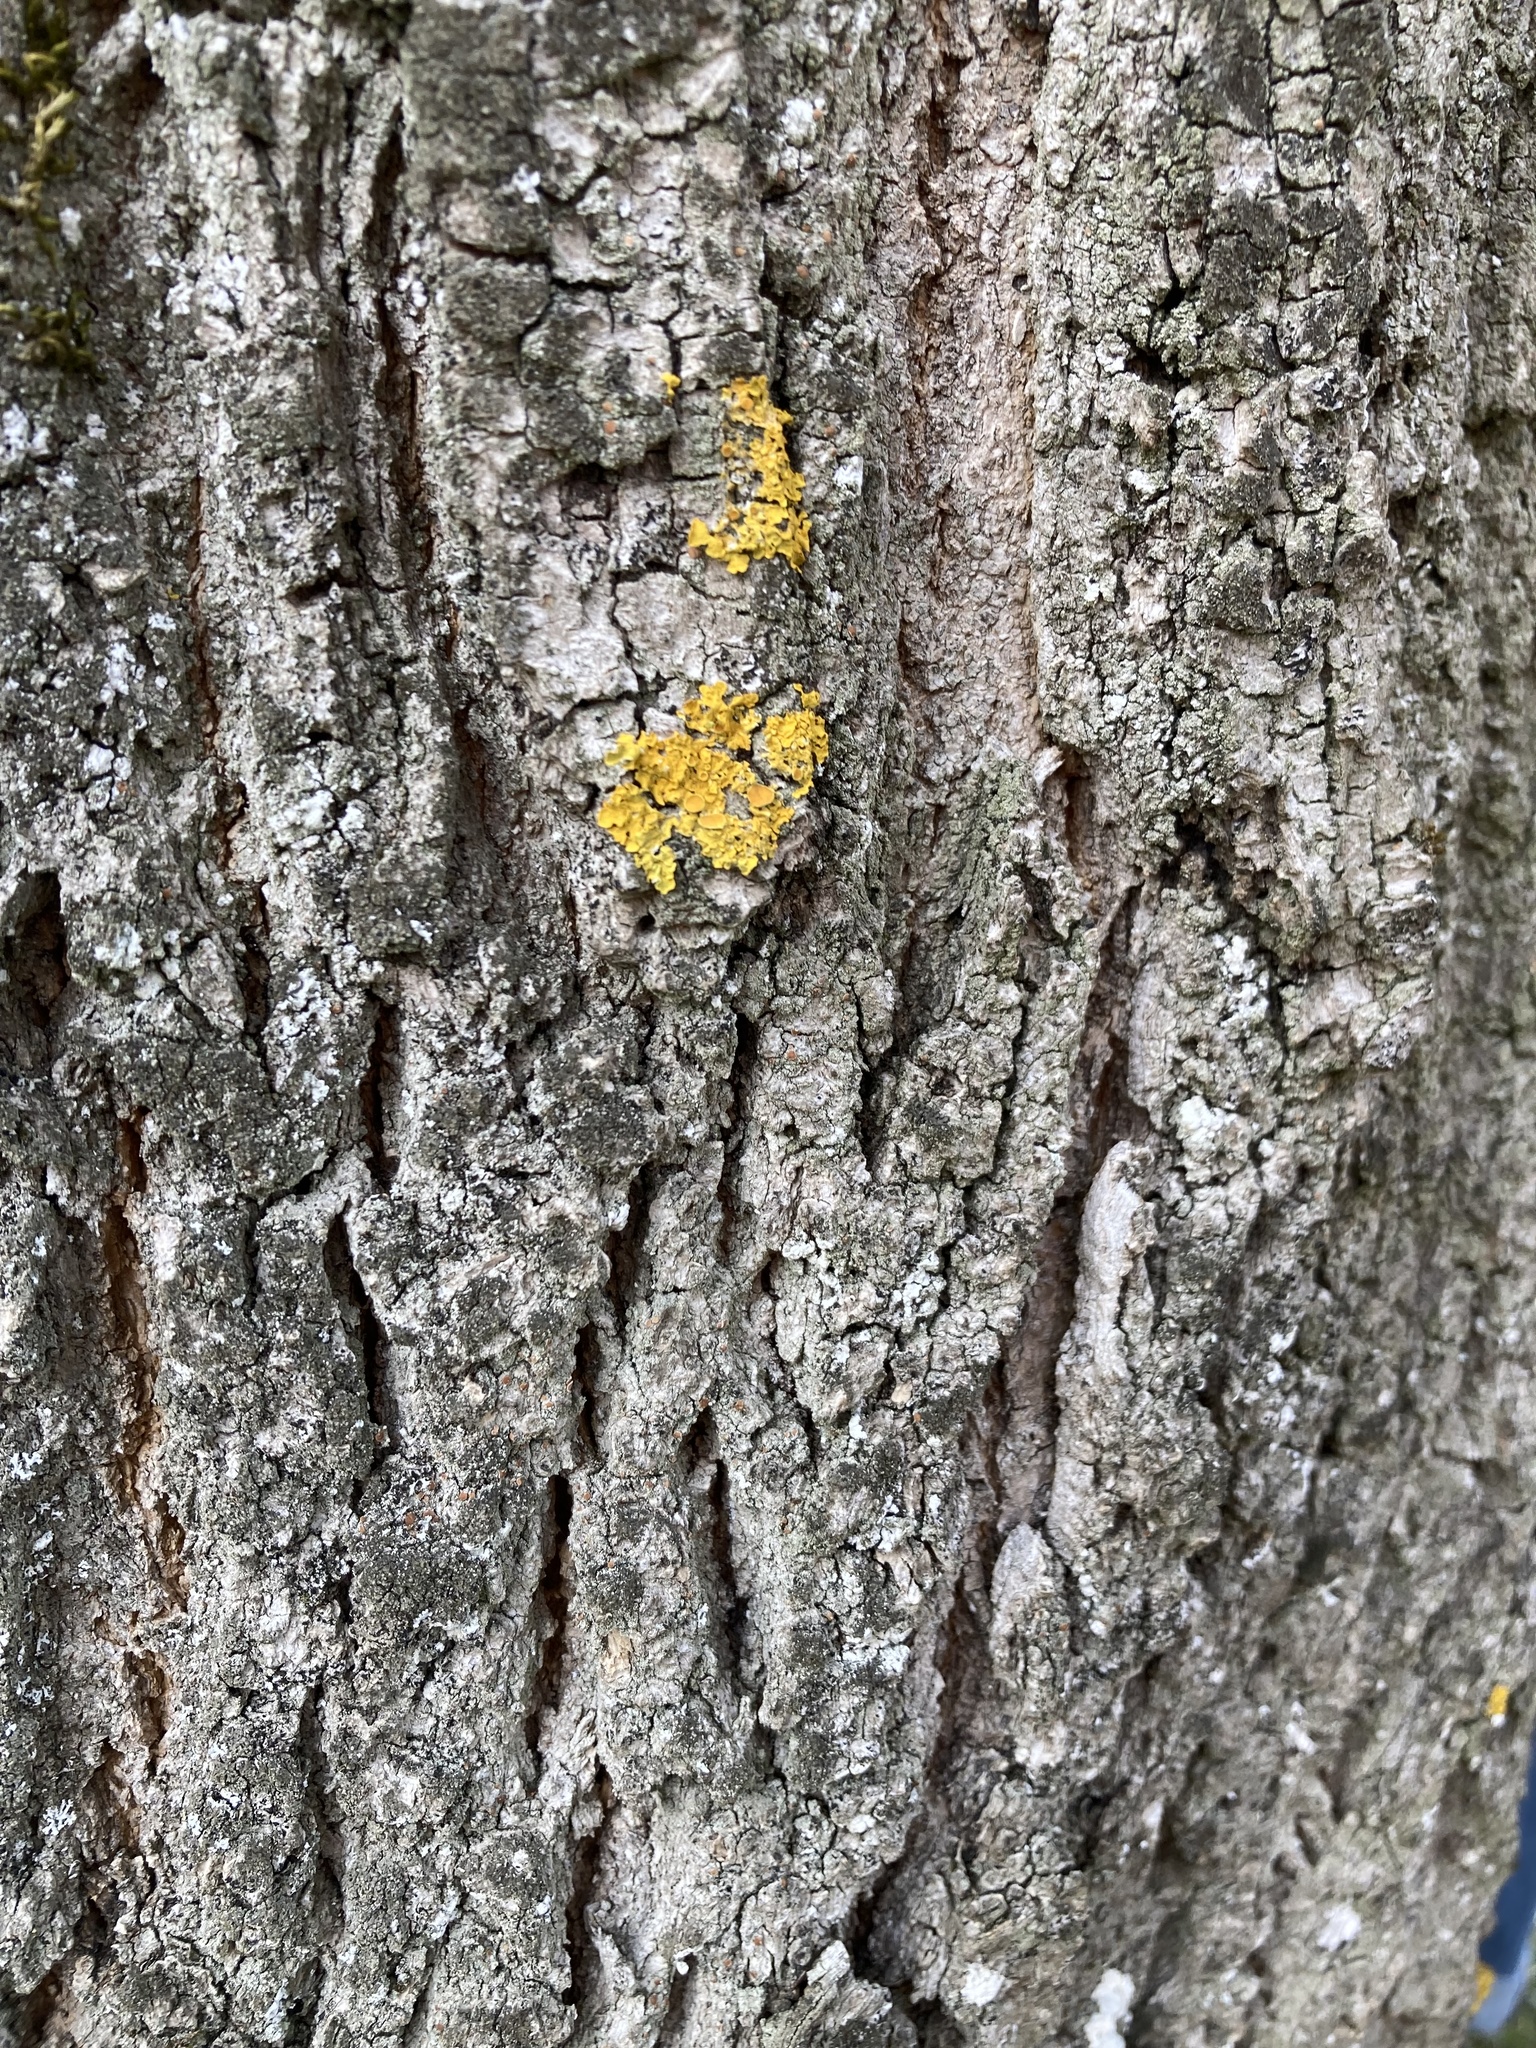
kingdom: Fungi
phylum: Ascomycota
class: Lecanoromycetes
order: Teloschistales
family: Teloschistaceae
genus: Xanthoria
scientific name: Xanthoria parietina
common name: Common orange lichen
